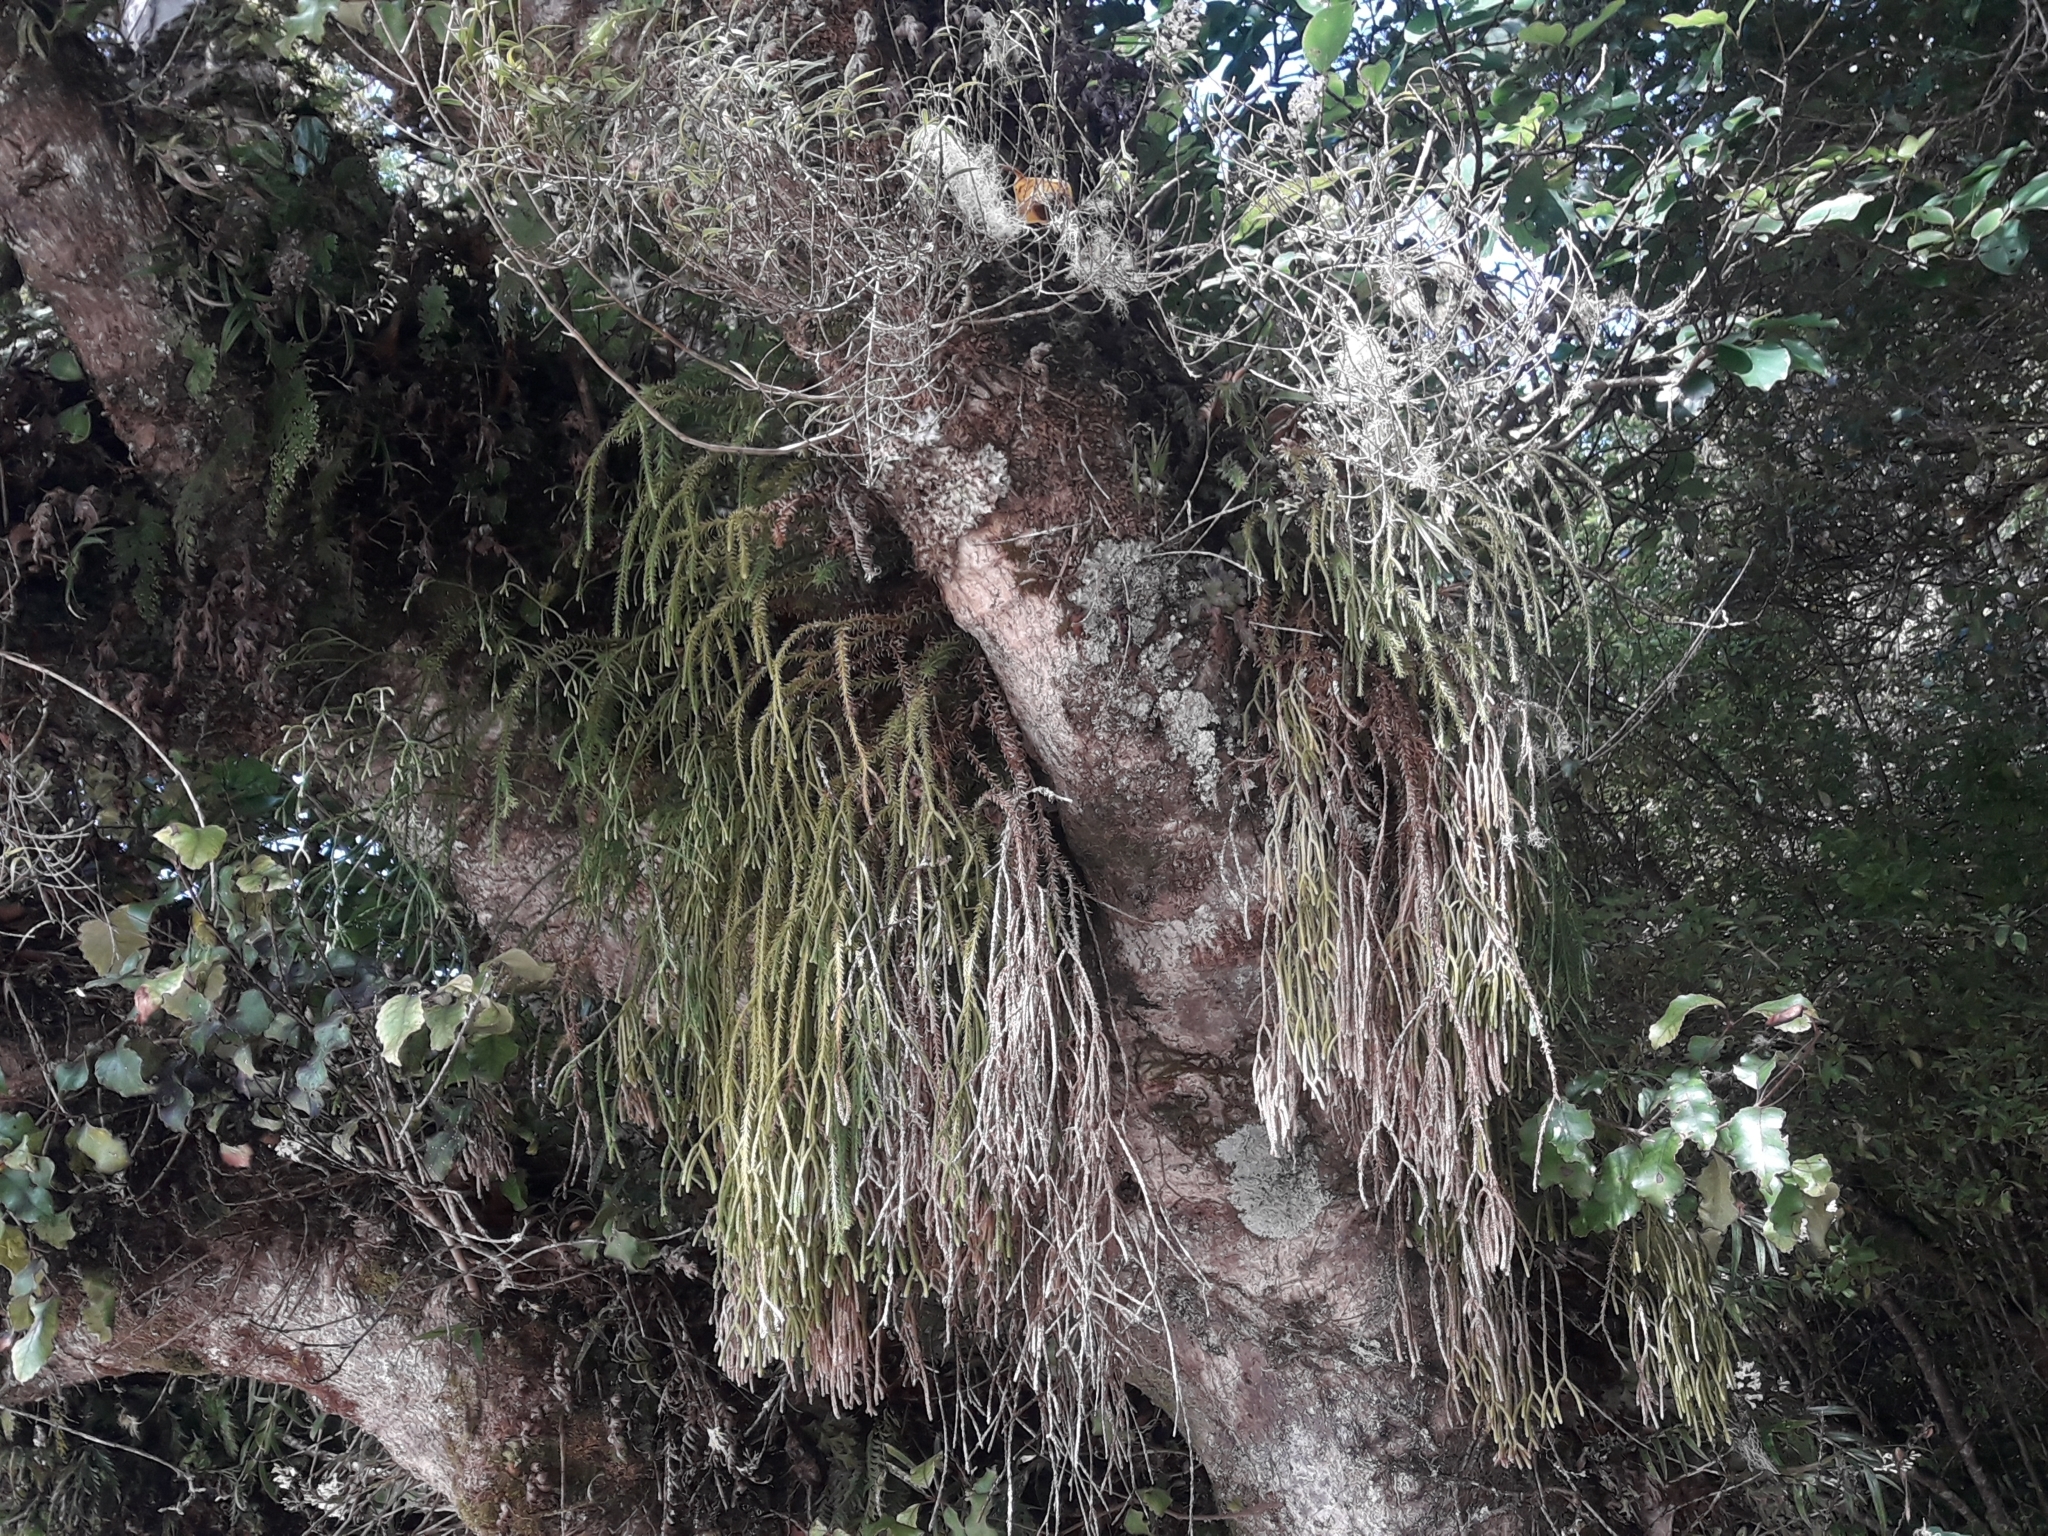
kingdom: Plantae
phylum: Tracheophyta
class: Lycopodiopsida
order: Lycopodiales
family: Lycopodiaceae
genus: Phlegmariurus
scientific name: Phlegmariurus varius
